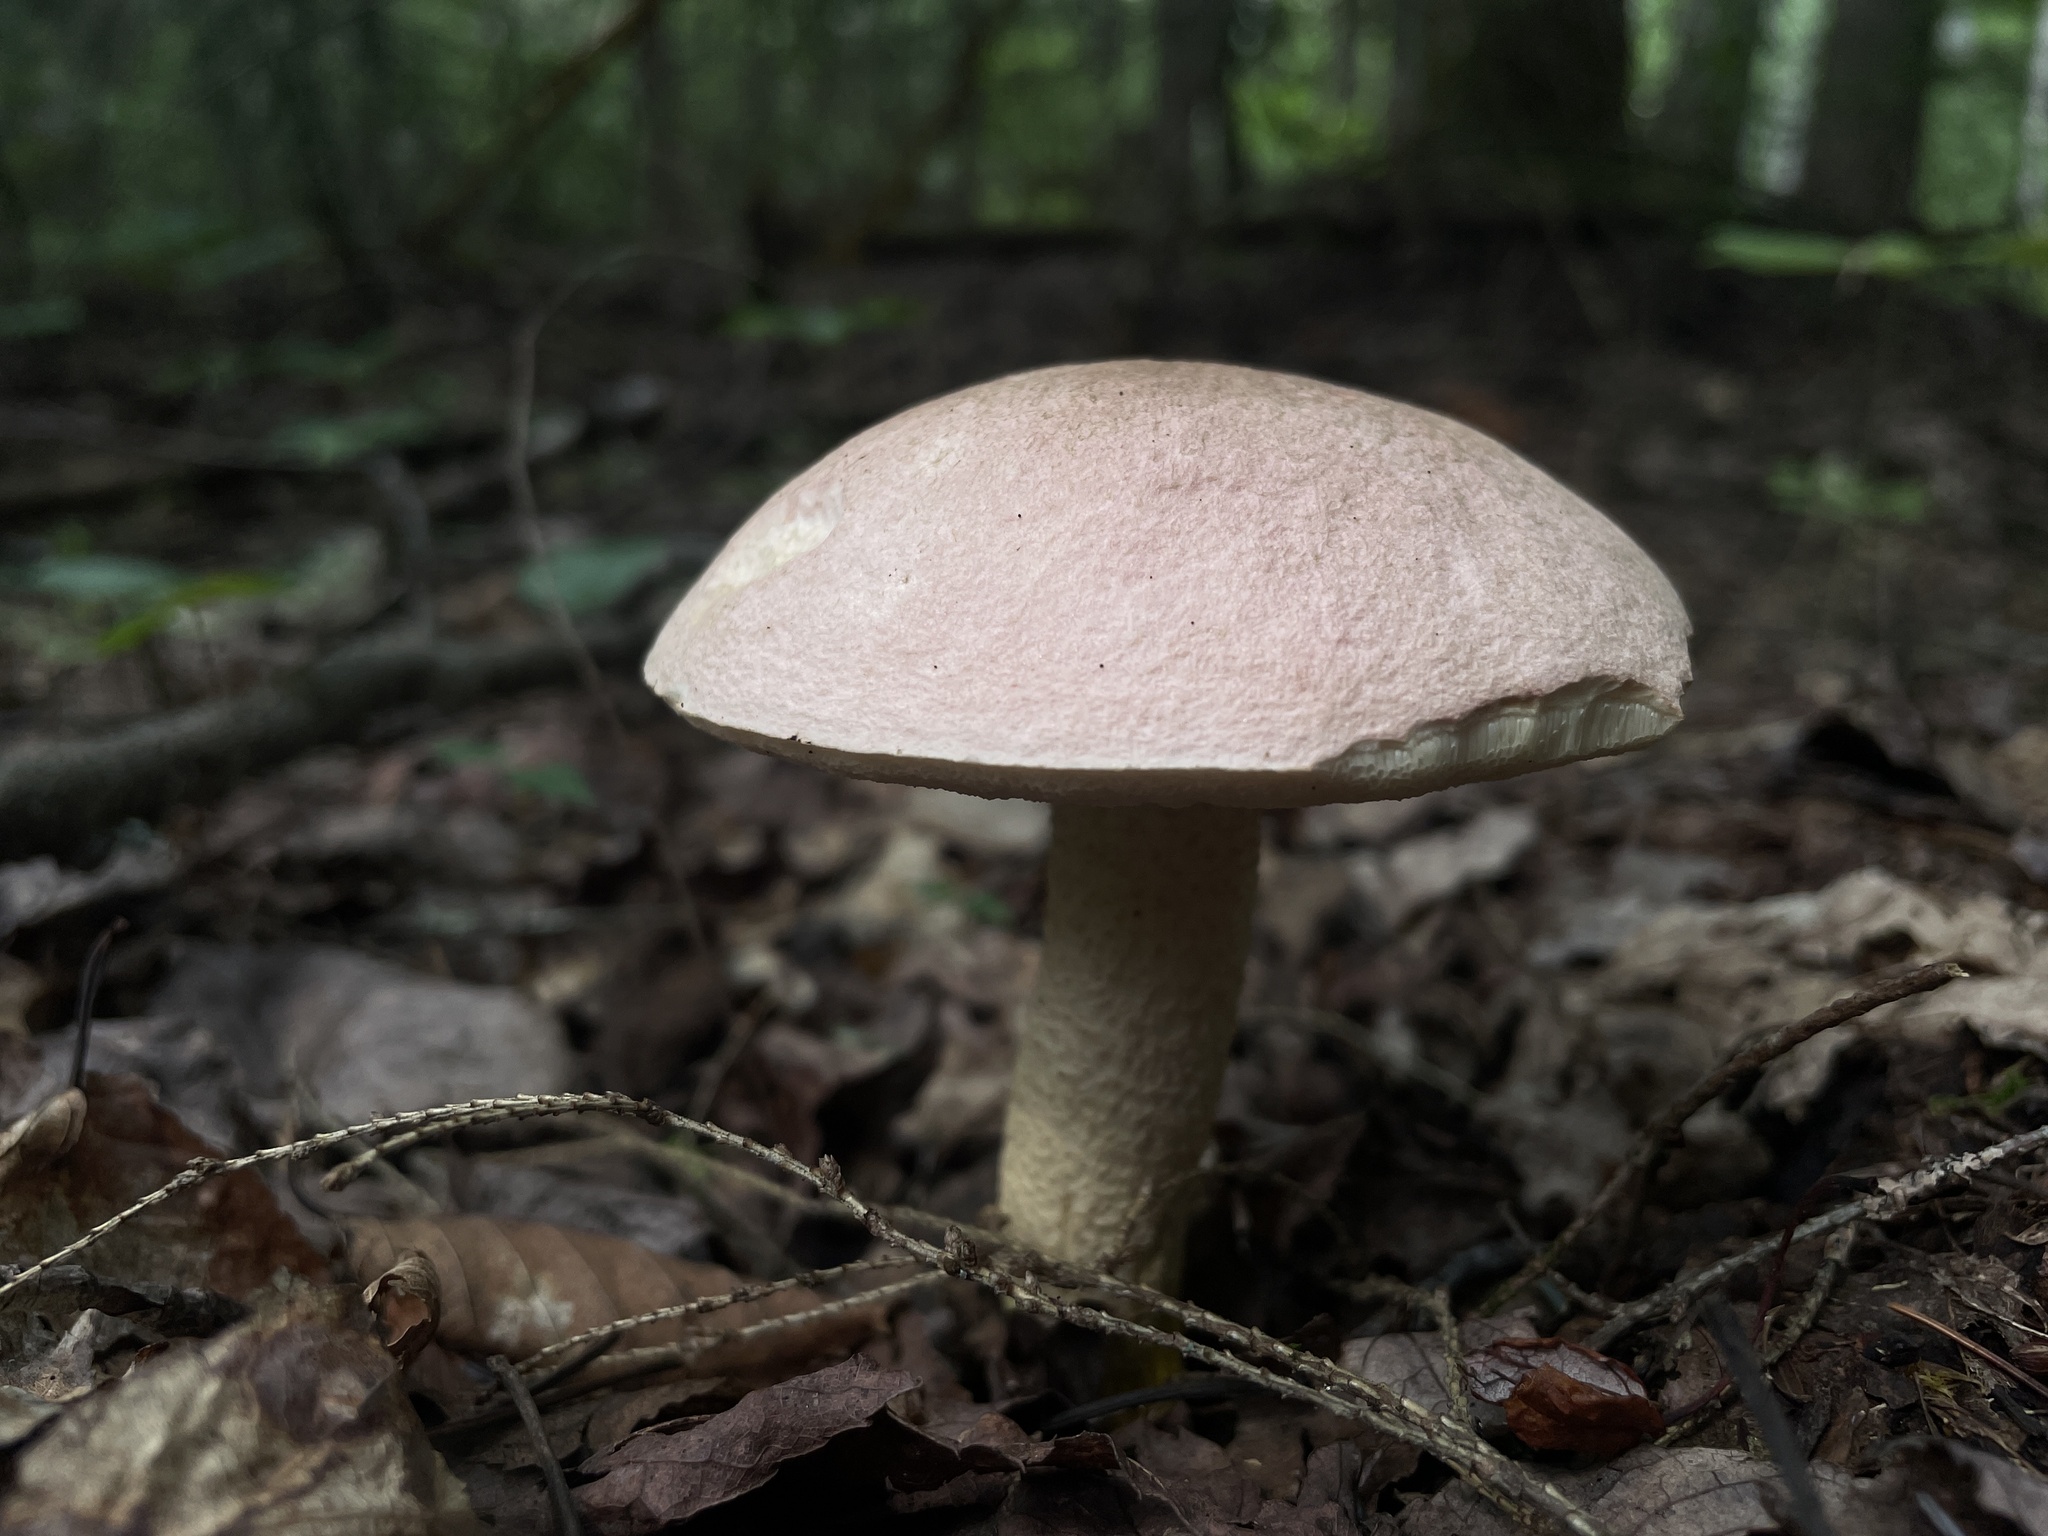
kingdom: Fungi
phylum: Basidiomycota
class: Agaricomycetes
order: Boletales
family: Boletaceae
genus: Harrya
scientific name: Harrya chromipes
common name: Chrome-footed bolete
